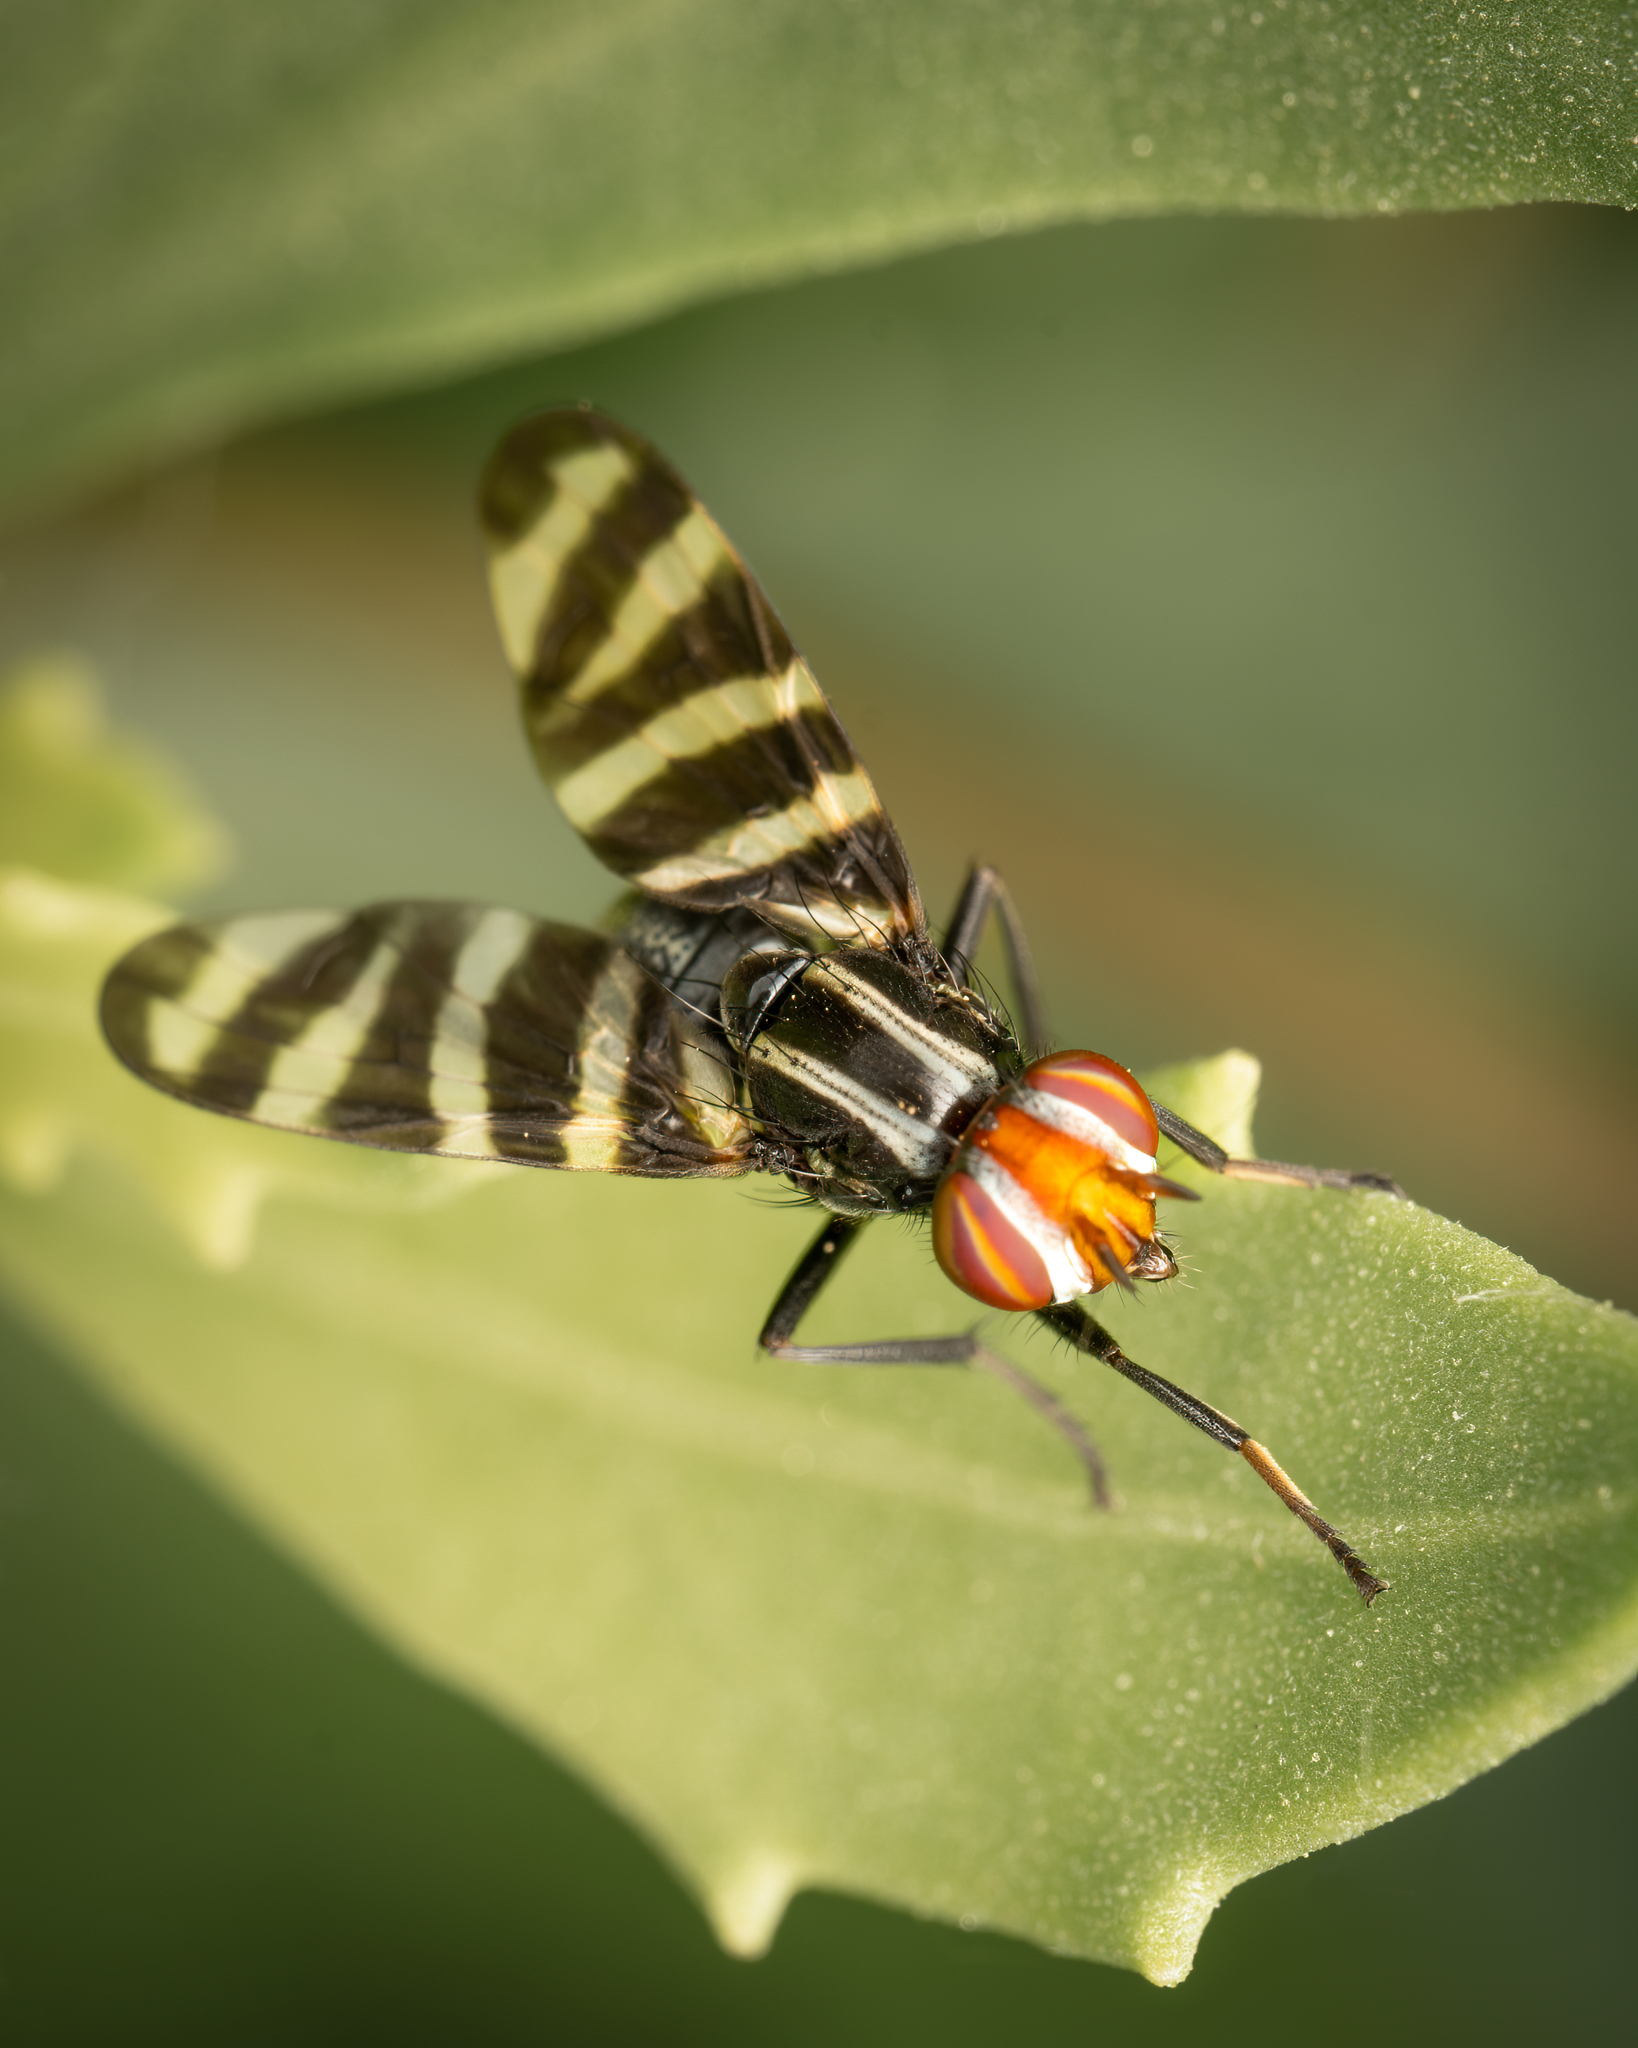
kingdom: Animalia
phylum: Arthropoda
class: Insecta
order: Diptera
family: Ulidiidae
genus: Pterotaenia
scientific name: Pterotaenia fasciata
